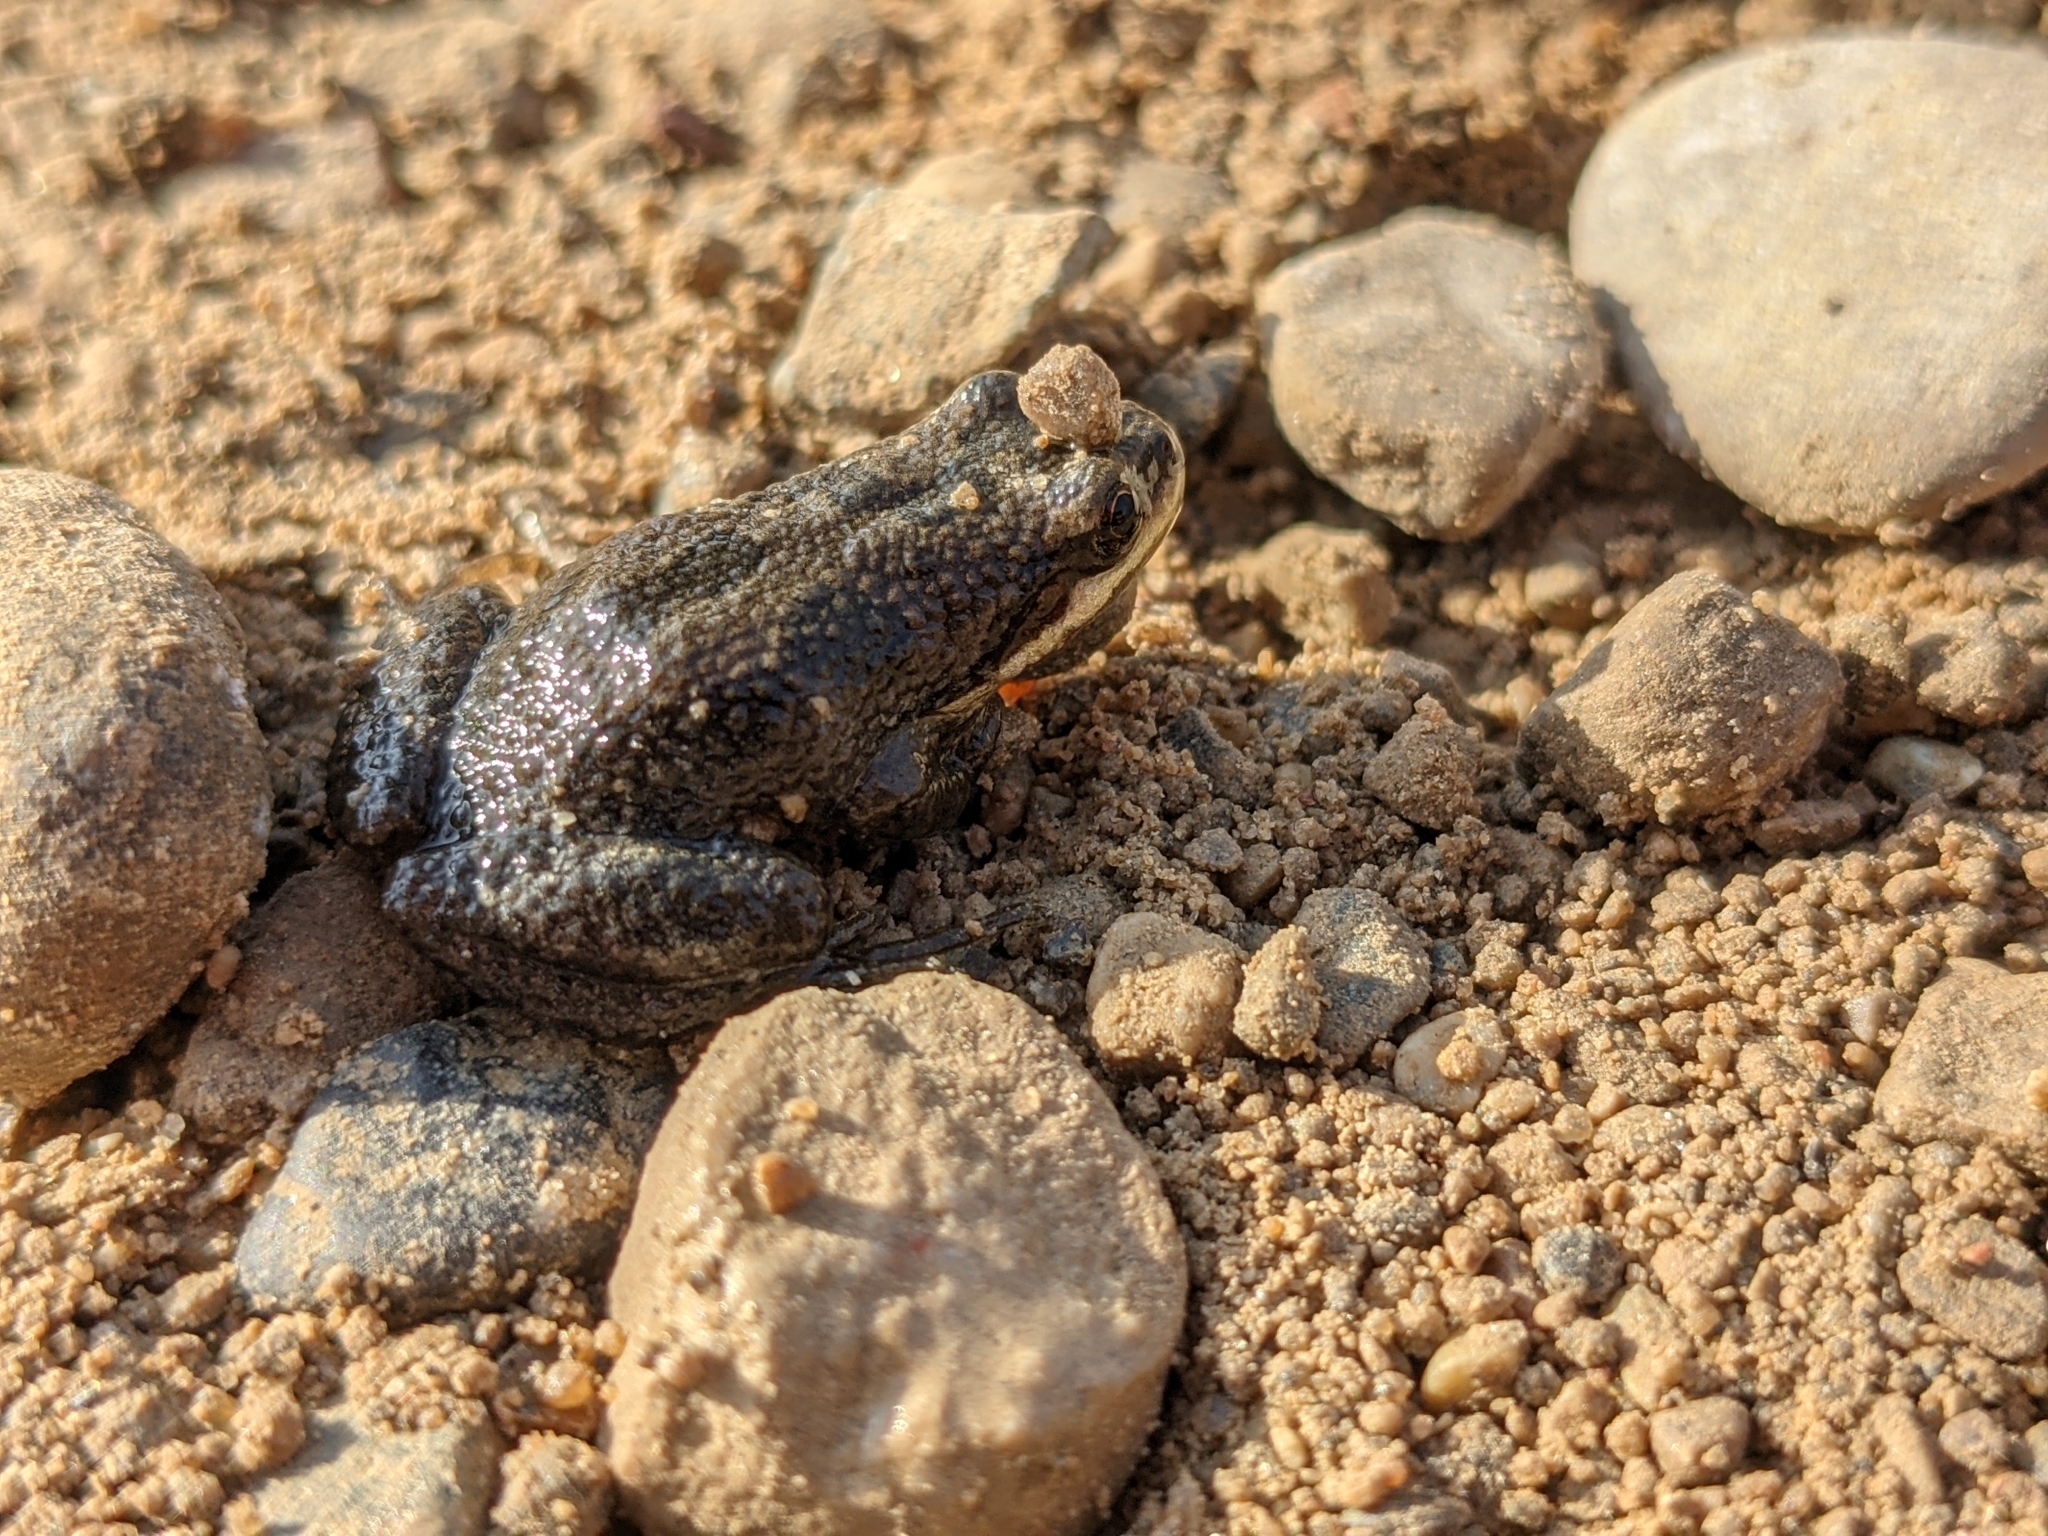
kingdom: Animalia
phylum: Chordata
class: Amphibia
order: Anura
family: Hylidae
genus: Pseudacris
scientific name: Pseudacris maculata
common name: Boreal chorus frog
